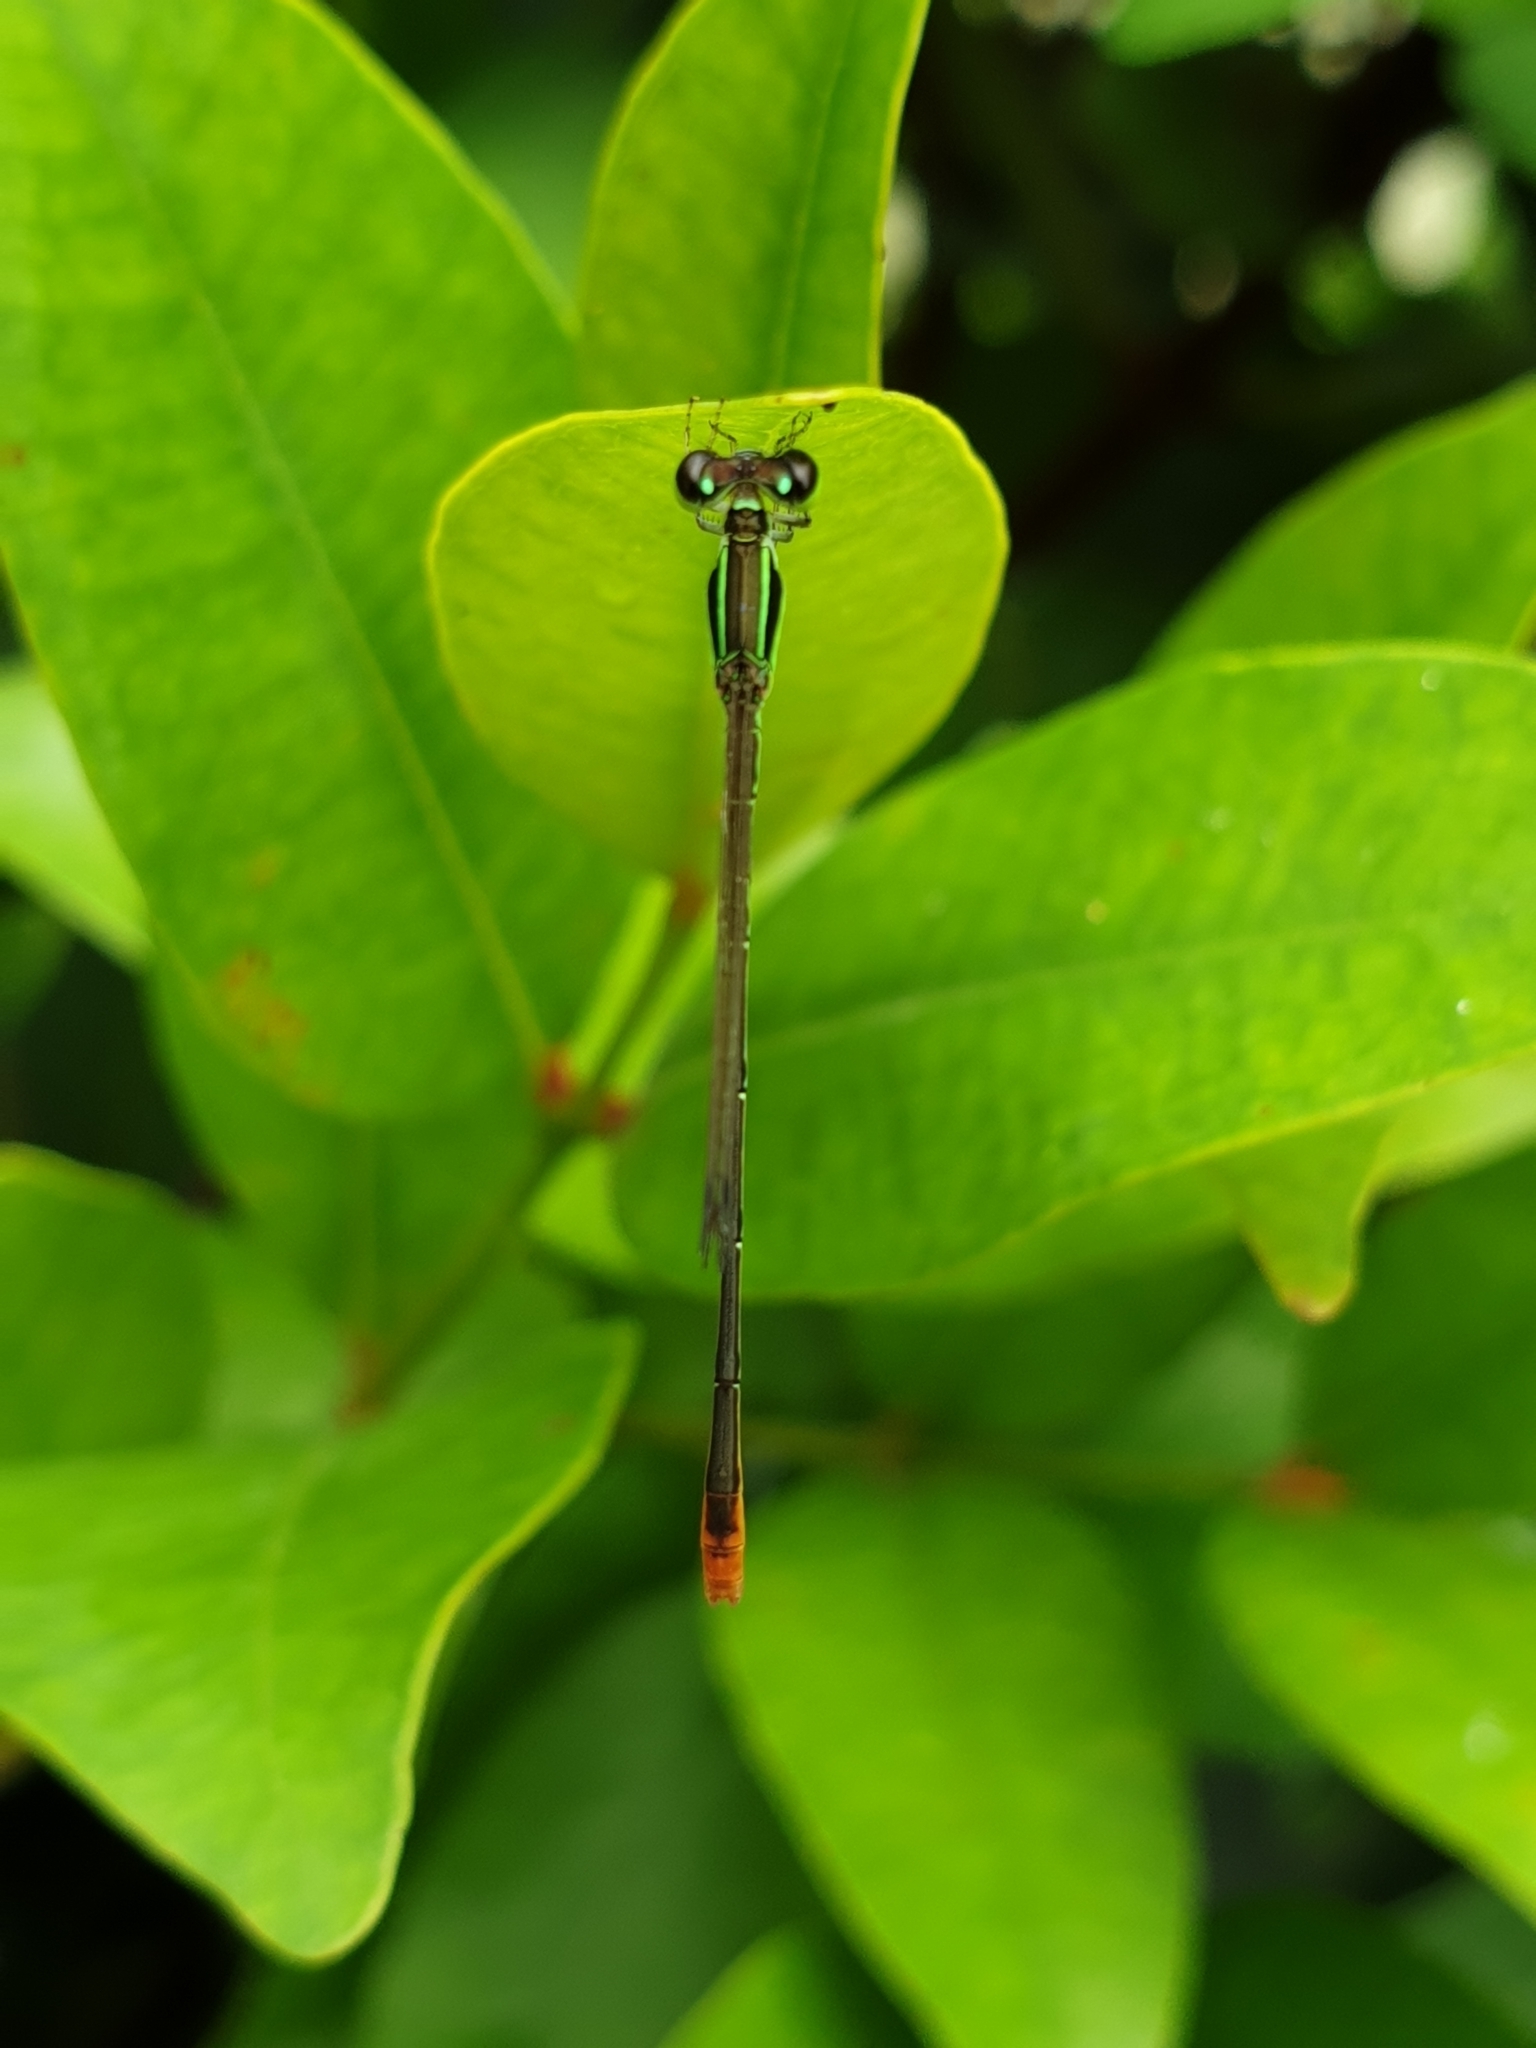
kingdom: Animalia
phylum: Arthropoda
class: Insecta
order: Odonata
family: Coenagrionidae
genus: Agriocnemis
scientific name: Agriocnemis pygmaea
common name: Pygmy wisp
